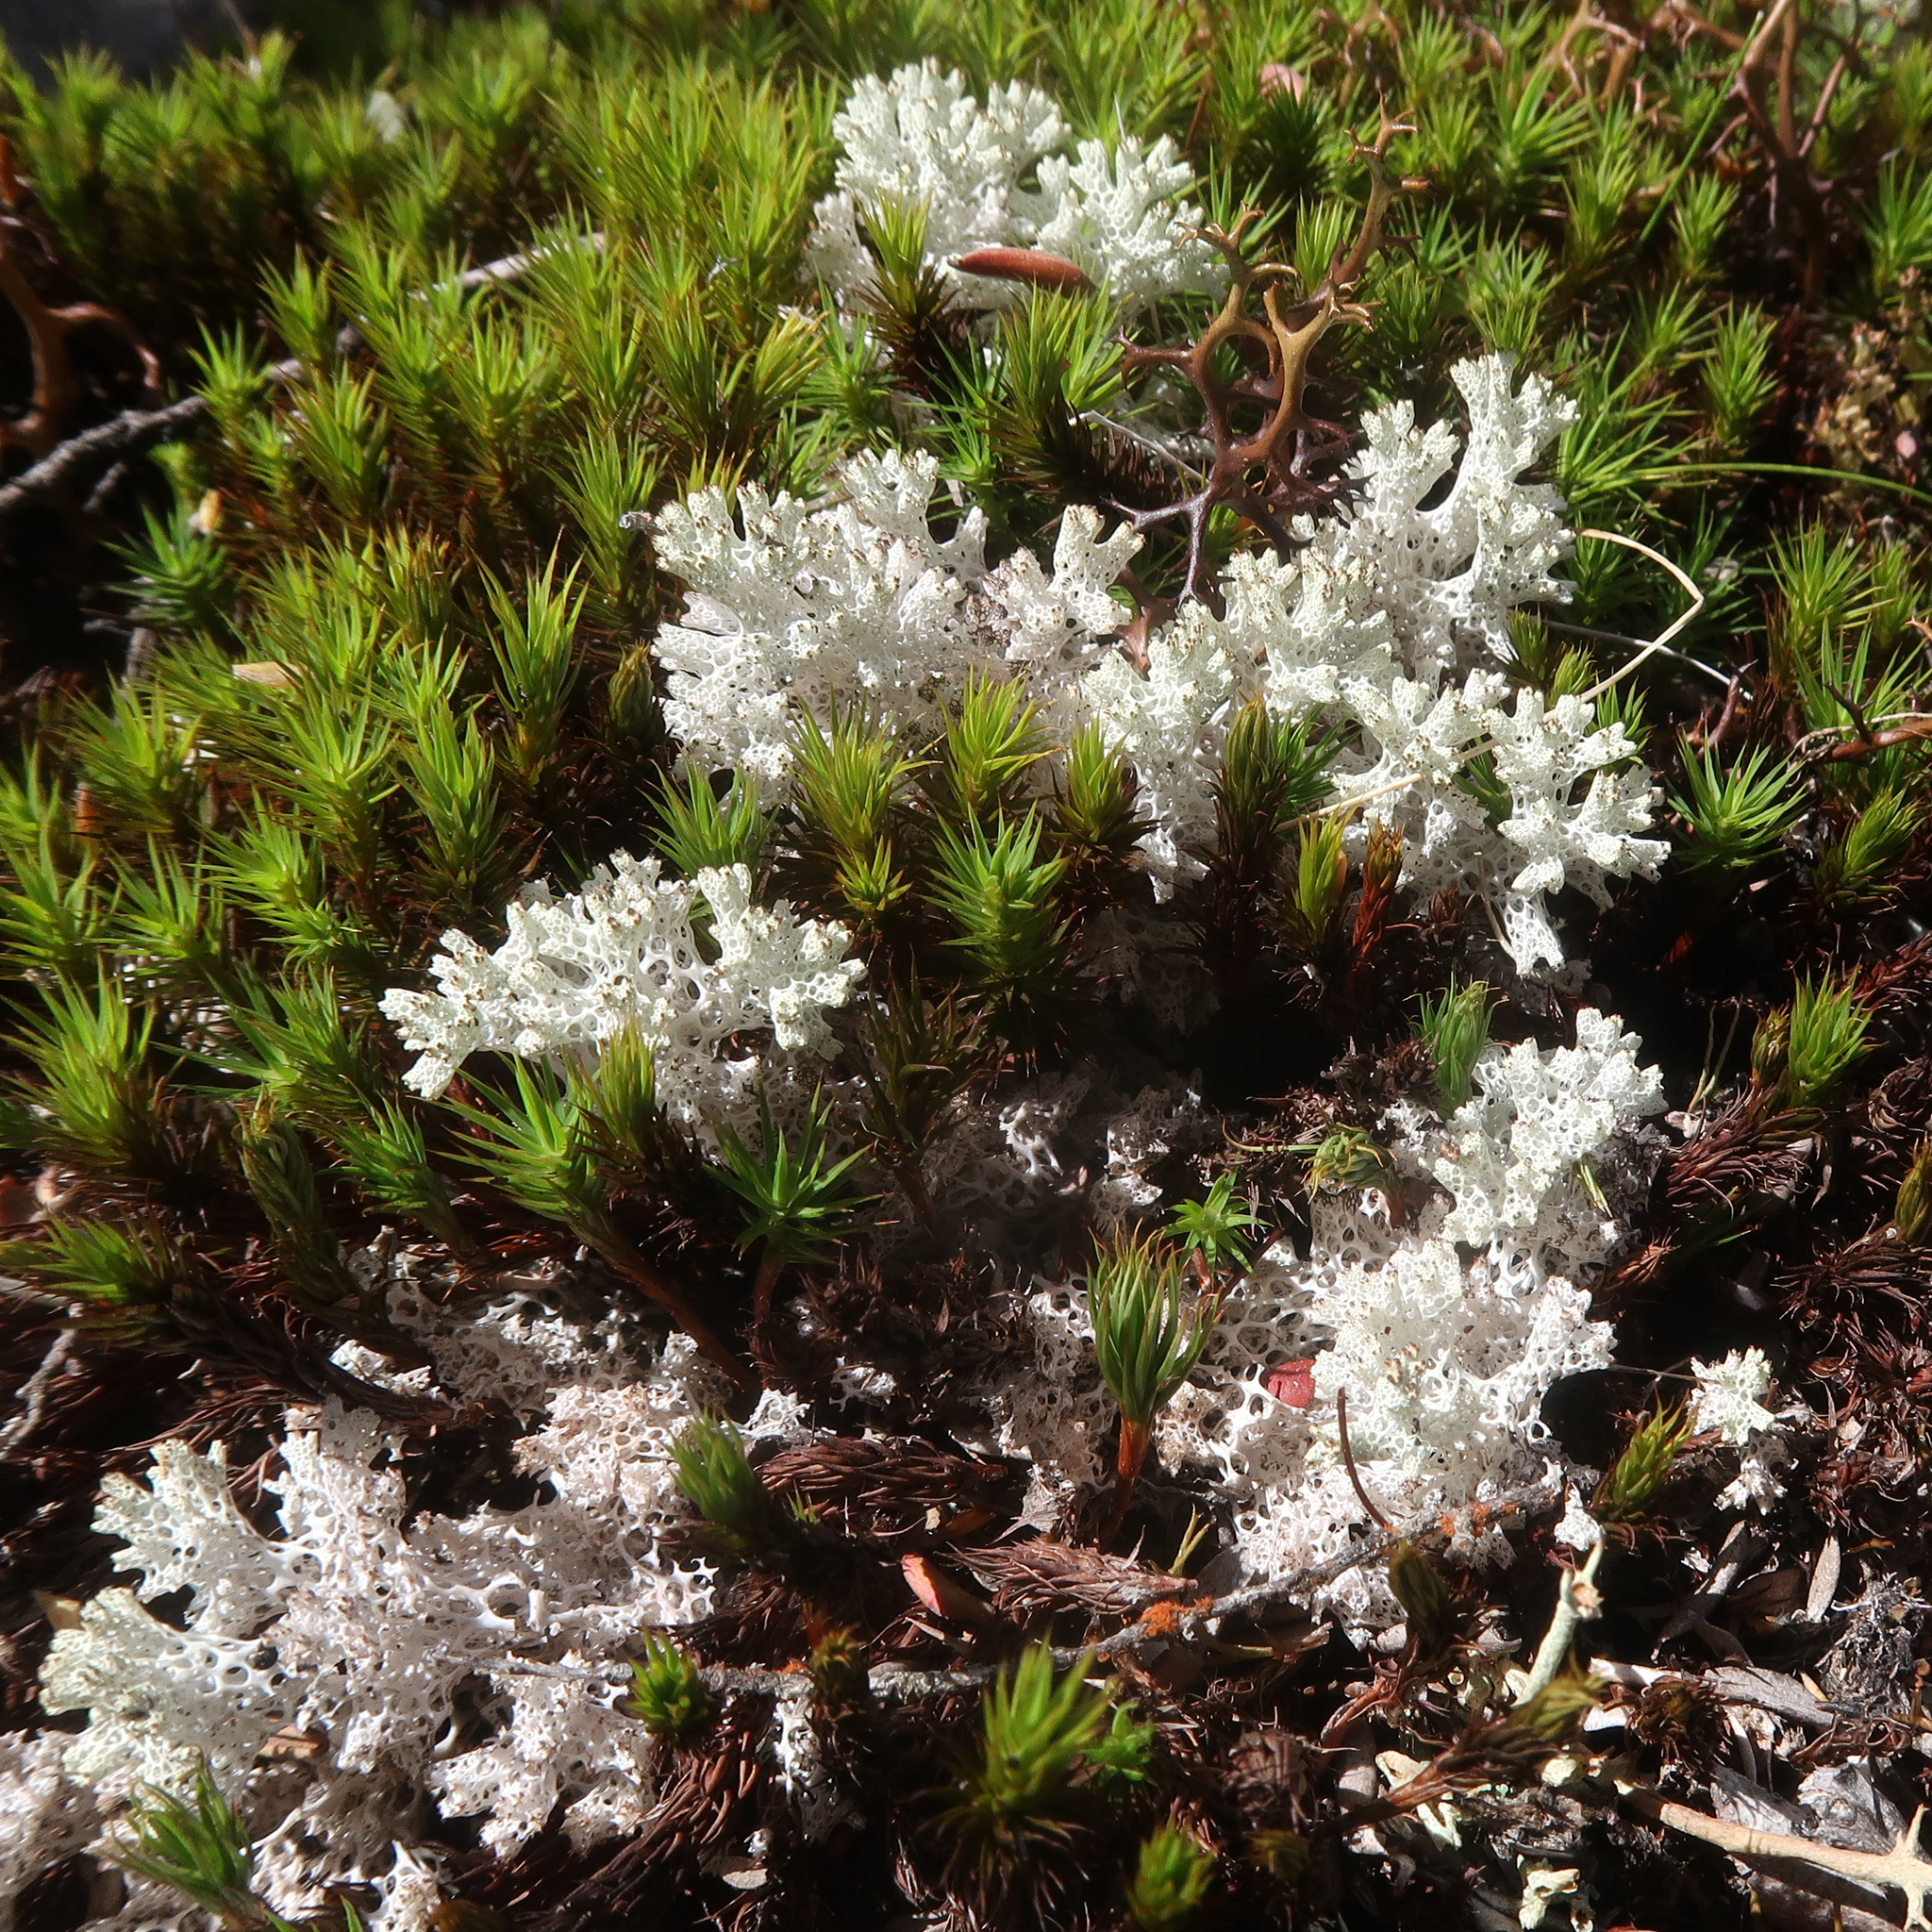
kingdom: Fungi
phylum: Ascomycota
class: Lecanoromycetes
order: Lecanorales
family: Cladoniaceae
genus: Pulchrocladia
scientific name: Pulchrocladia retipora
